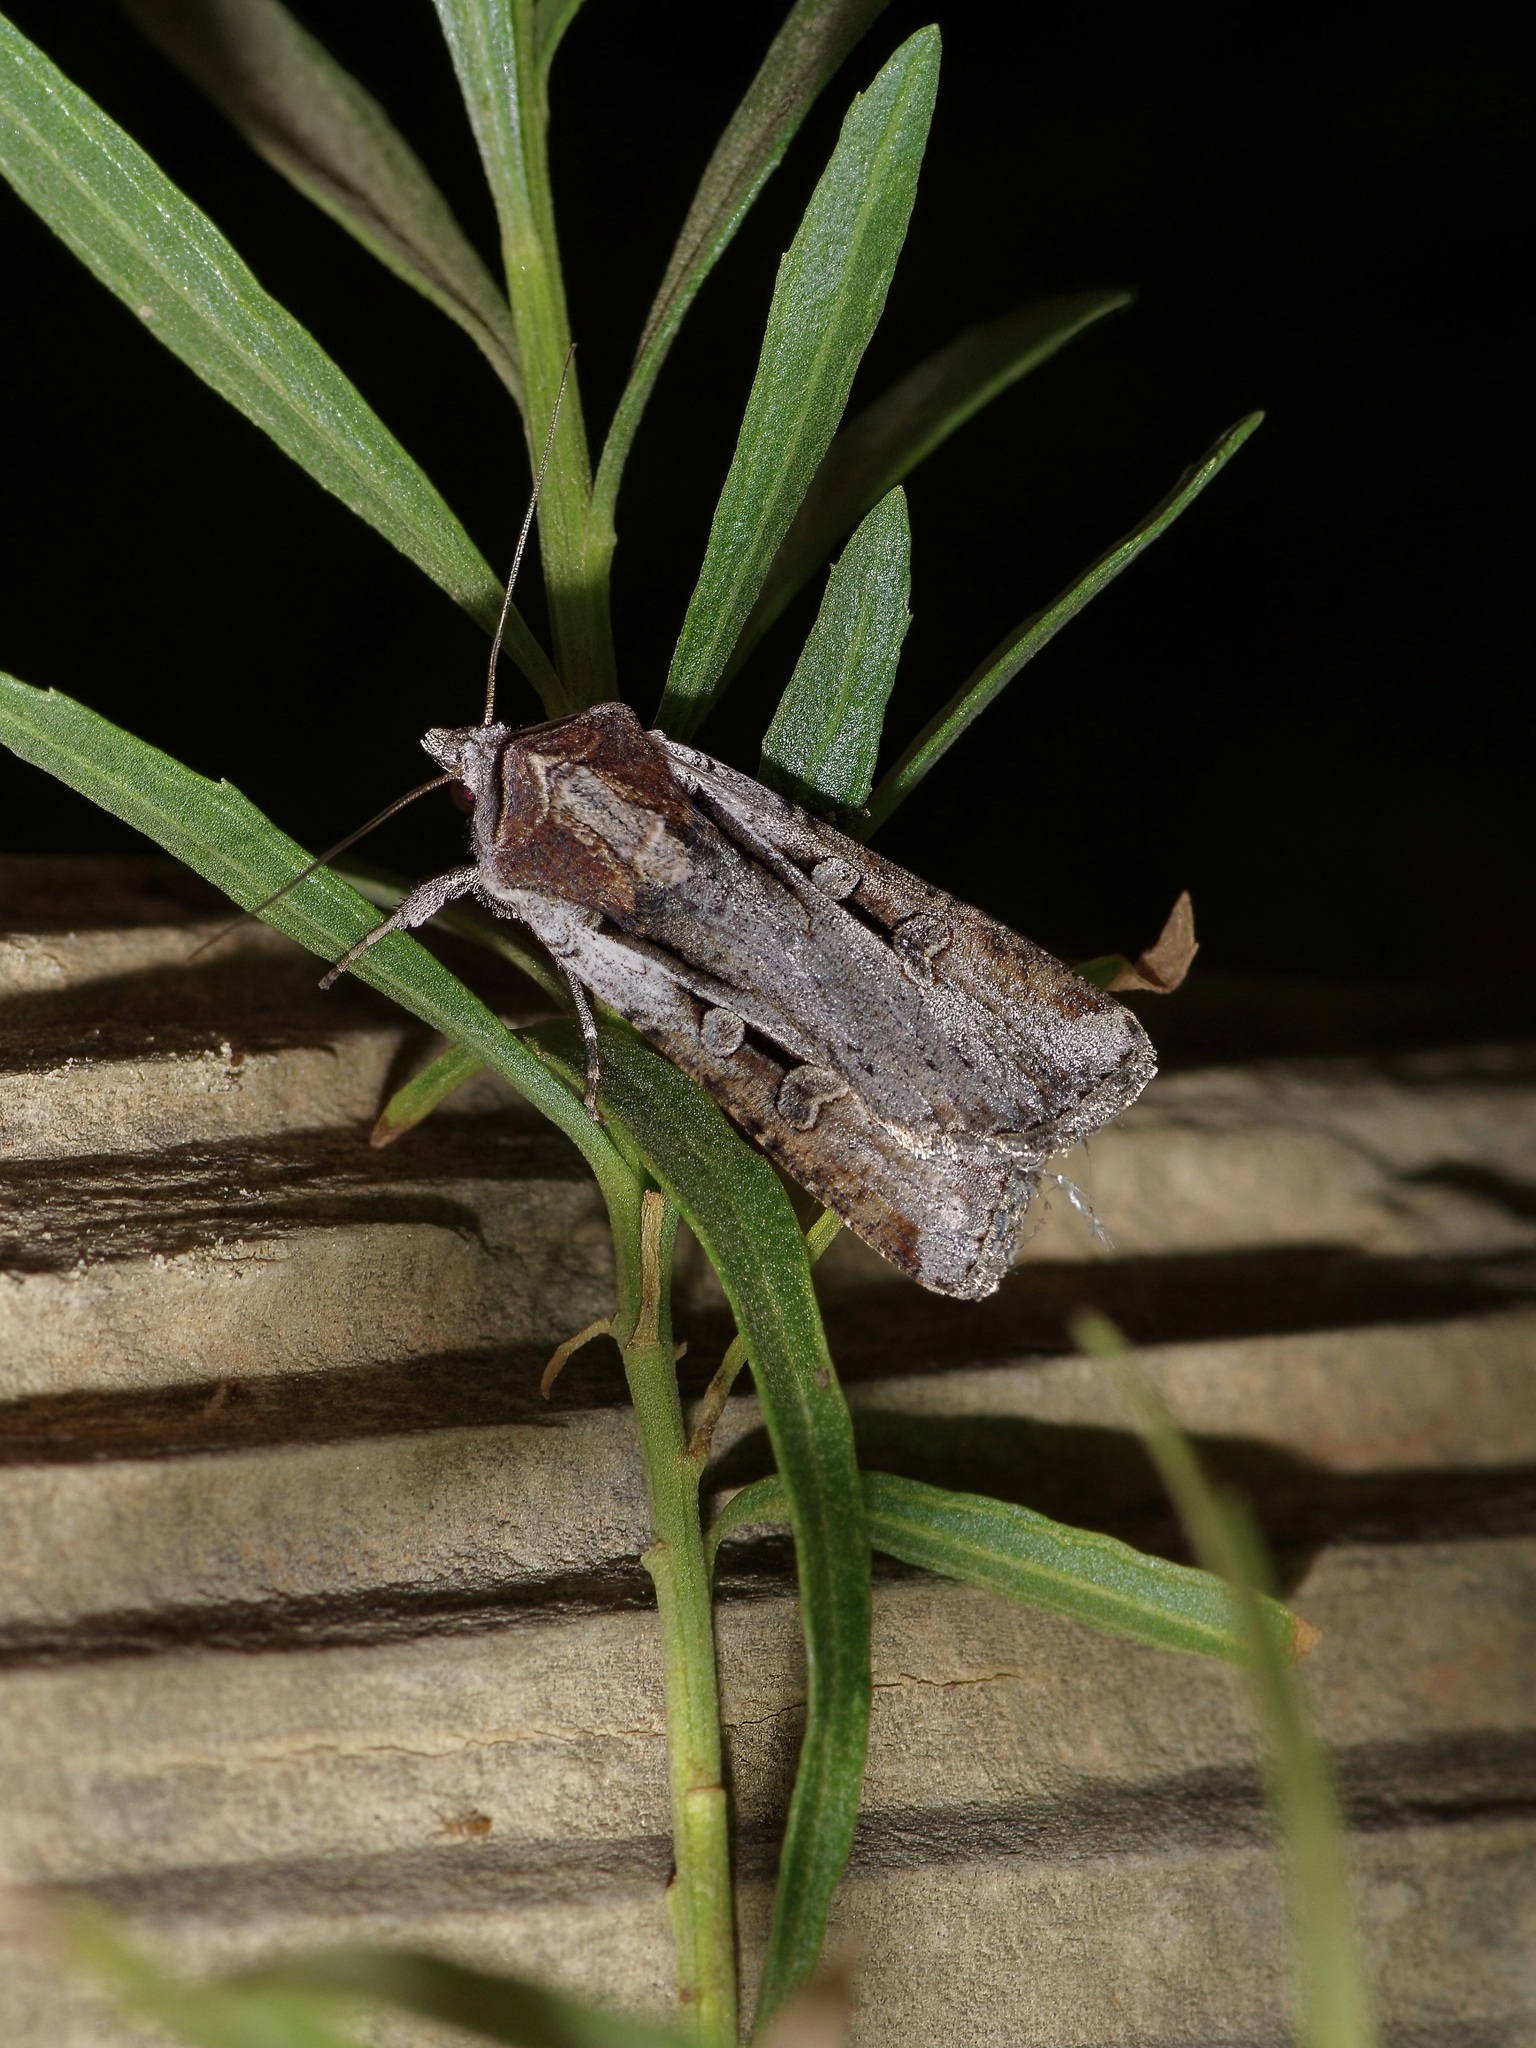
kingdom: Animalia
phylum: Arthropoda
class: Insecta
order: Lepidoptera
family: Noctuidae
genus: Hemieuxoa
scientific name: Hemieuxoa rudens
